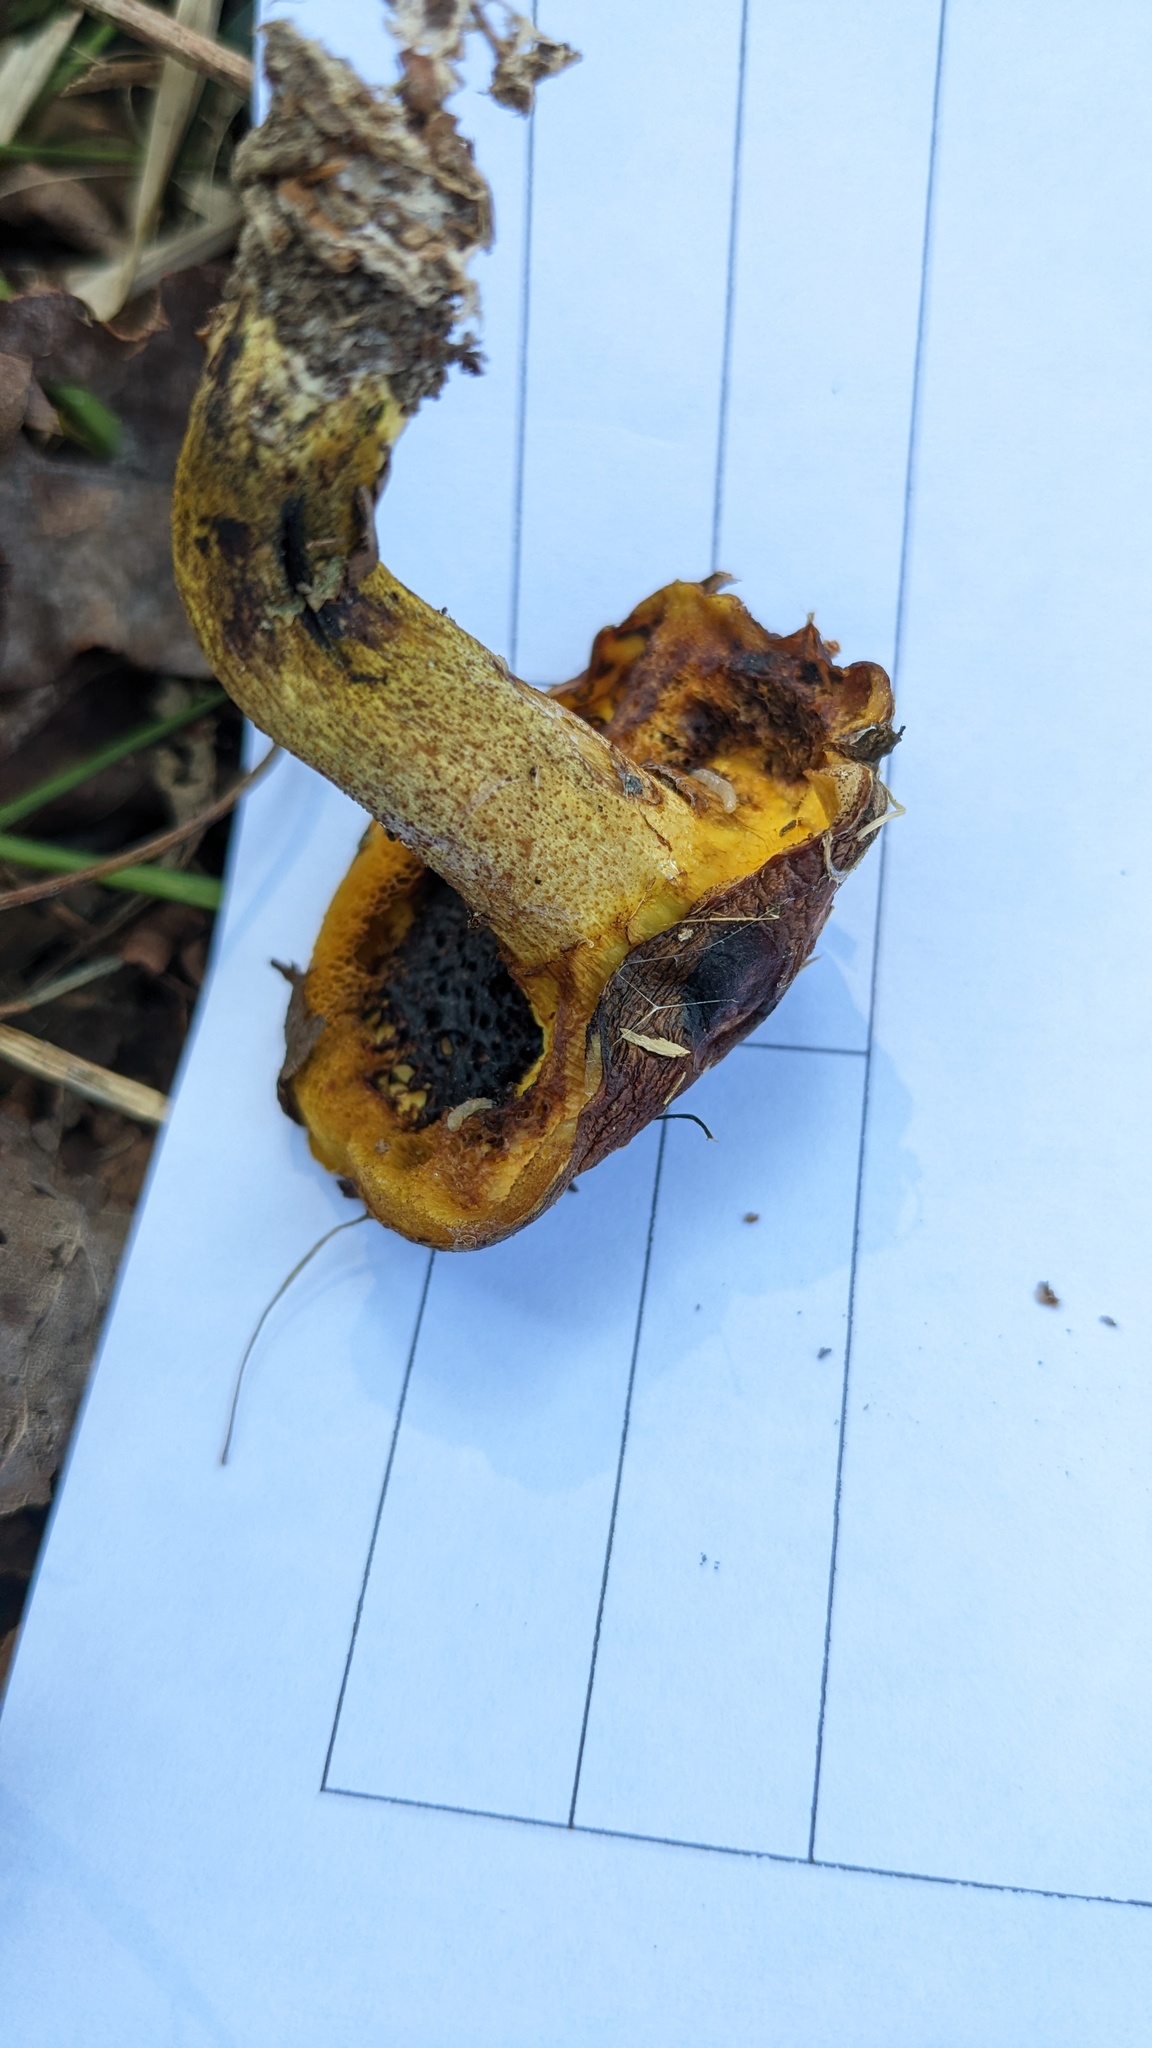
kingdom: Fungi
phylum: Basidiomycota
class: Agaricomycetes
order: Boletales
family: Suillaceae
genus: Suillus
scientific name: Suillus granulatus
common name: Weeping bolete
